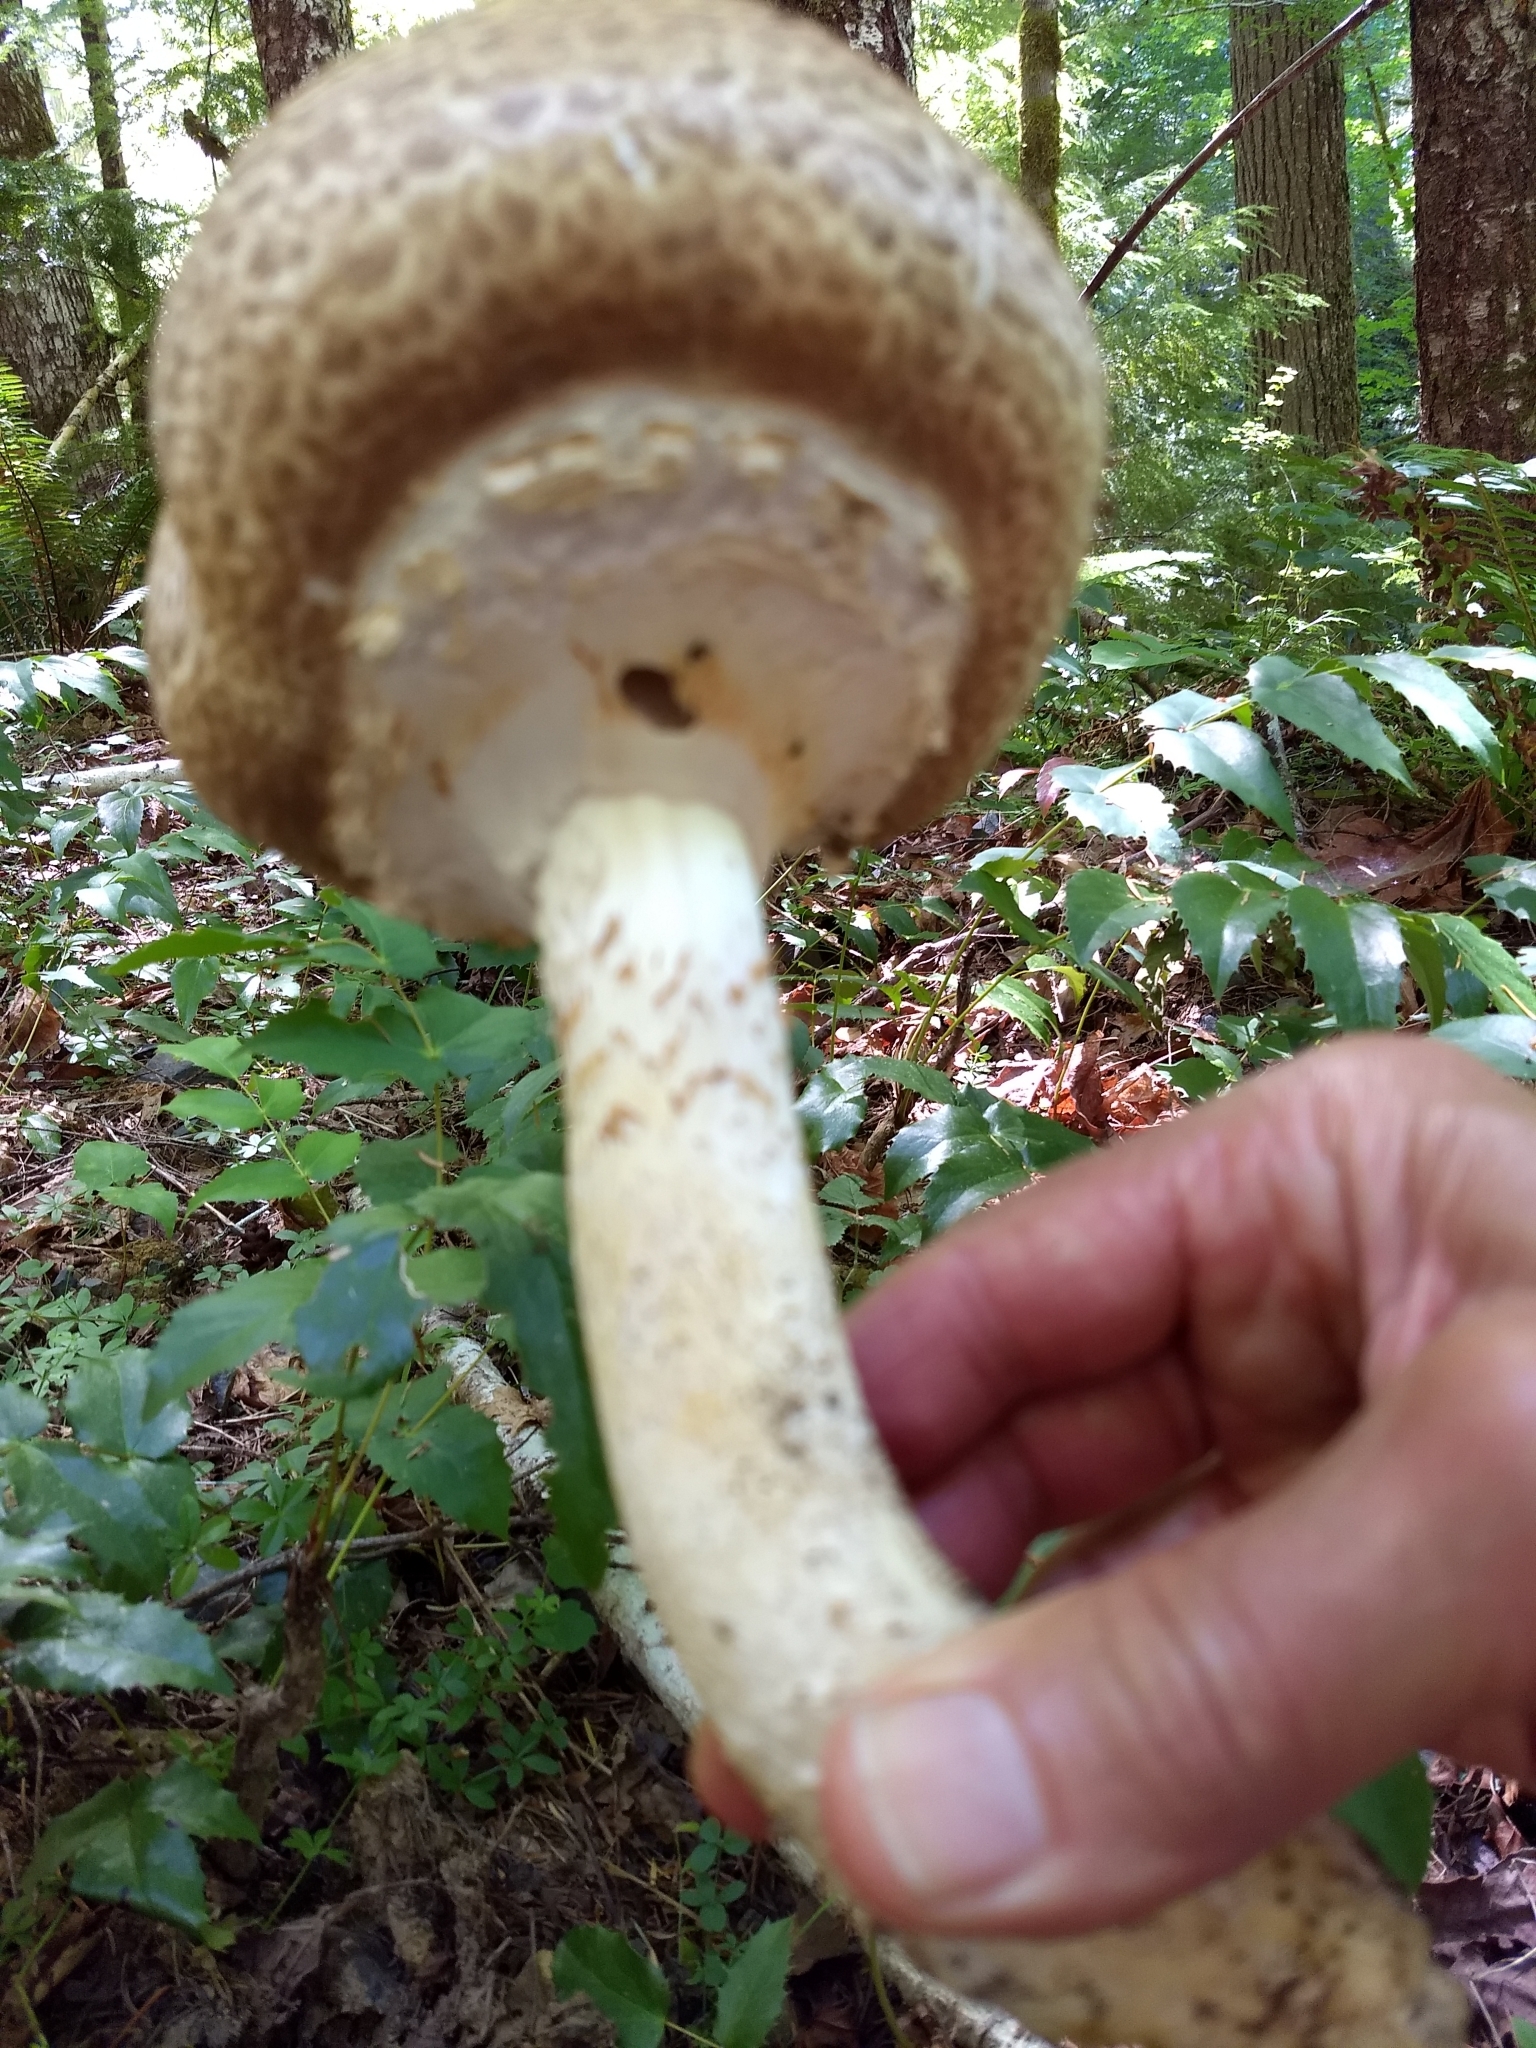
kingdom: Fungi
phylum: Basidiomycota
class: Agaricomycetes
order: Agaricales
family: Agaricaceae
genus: Agaricus
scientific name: Agaricus augustus
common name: Prince
